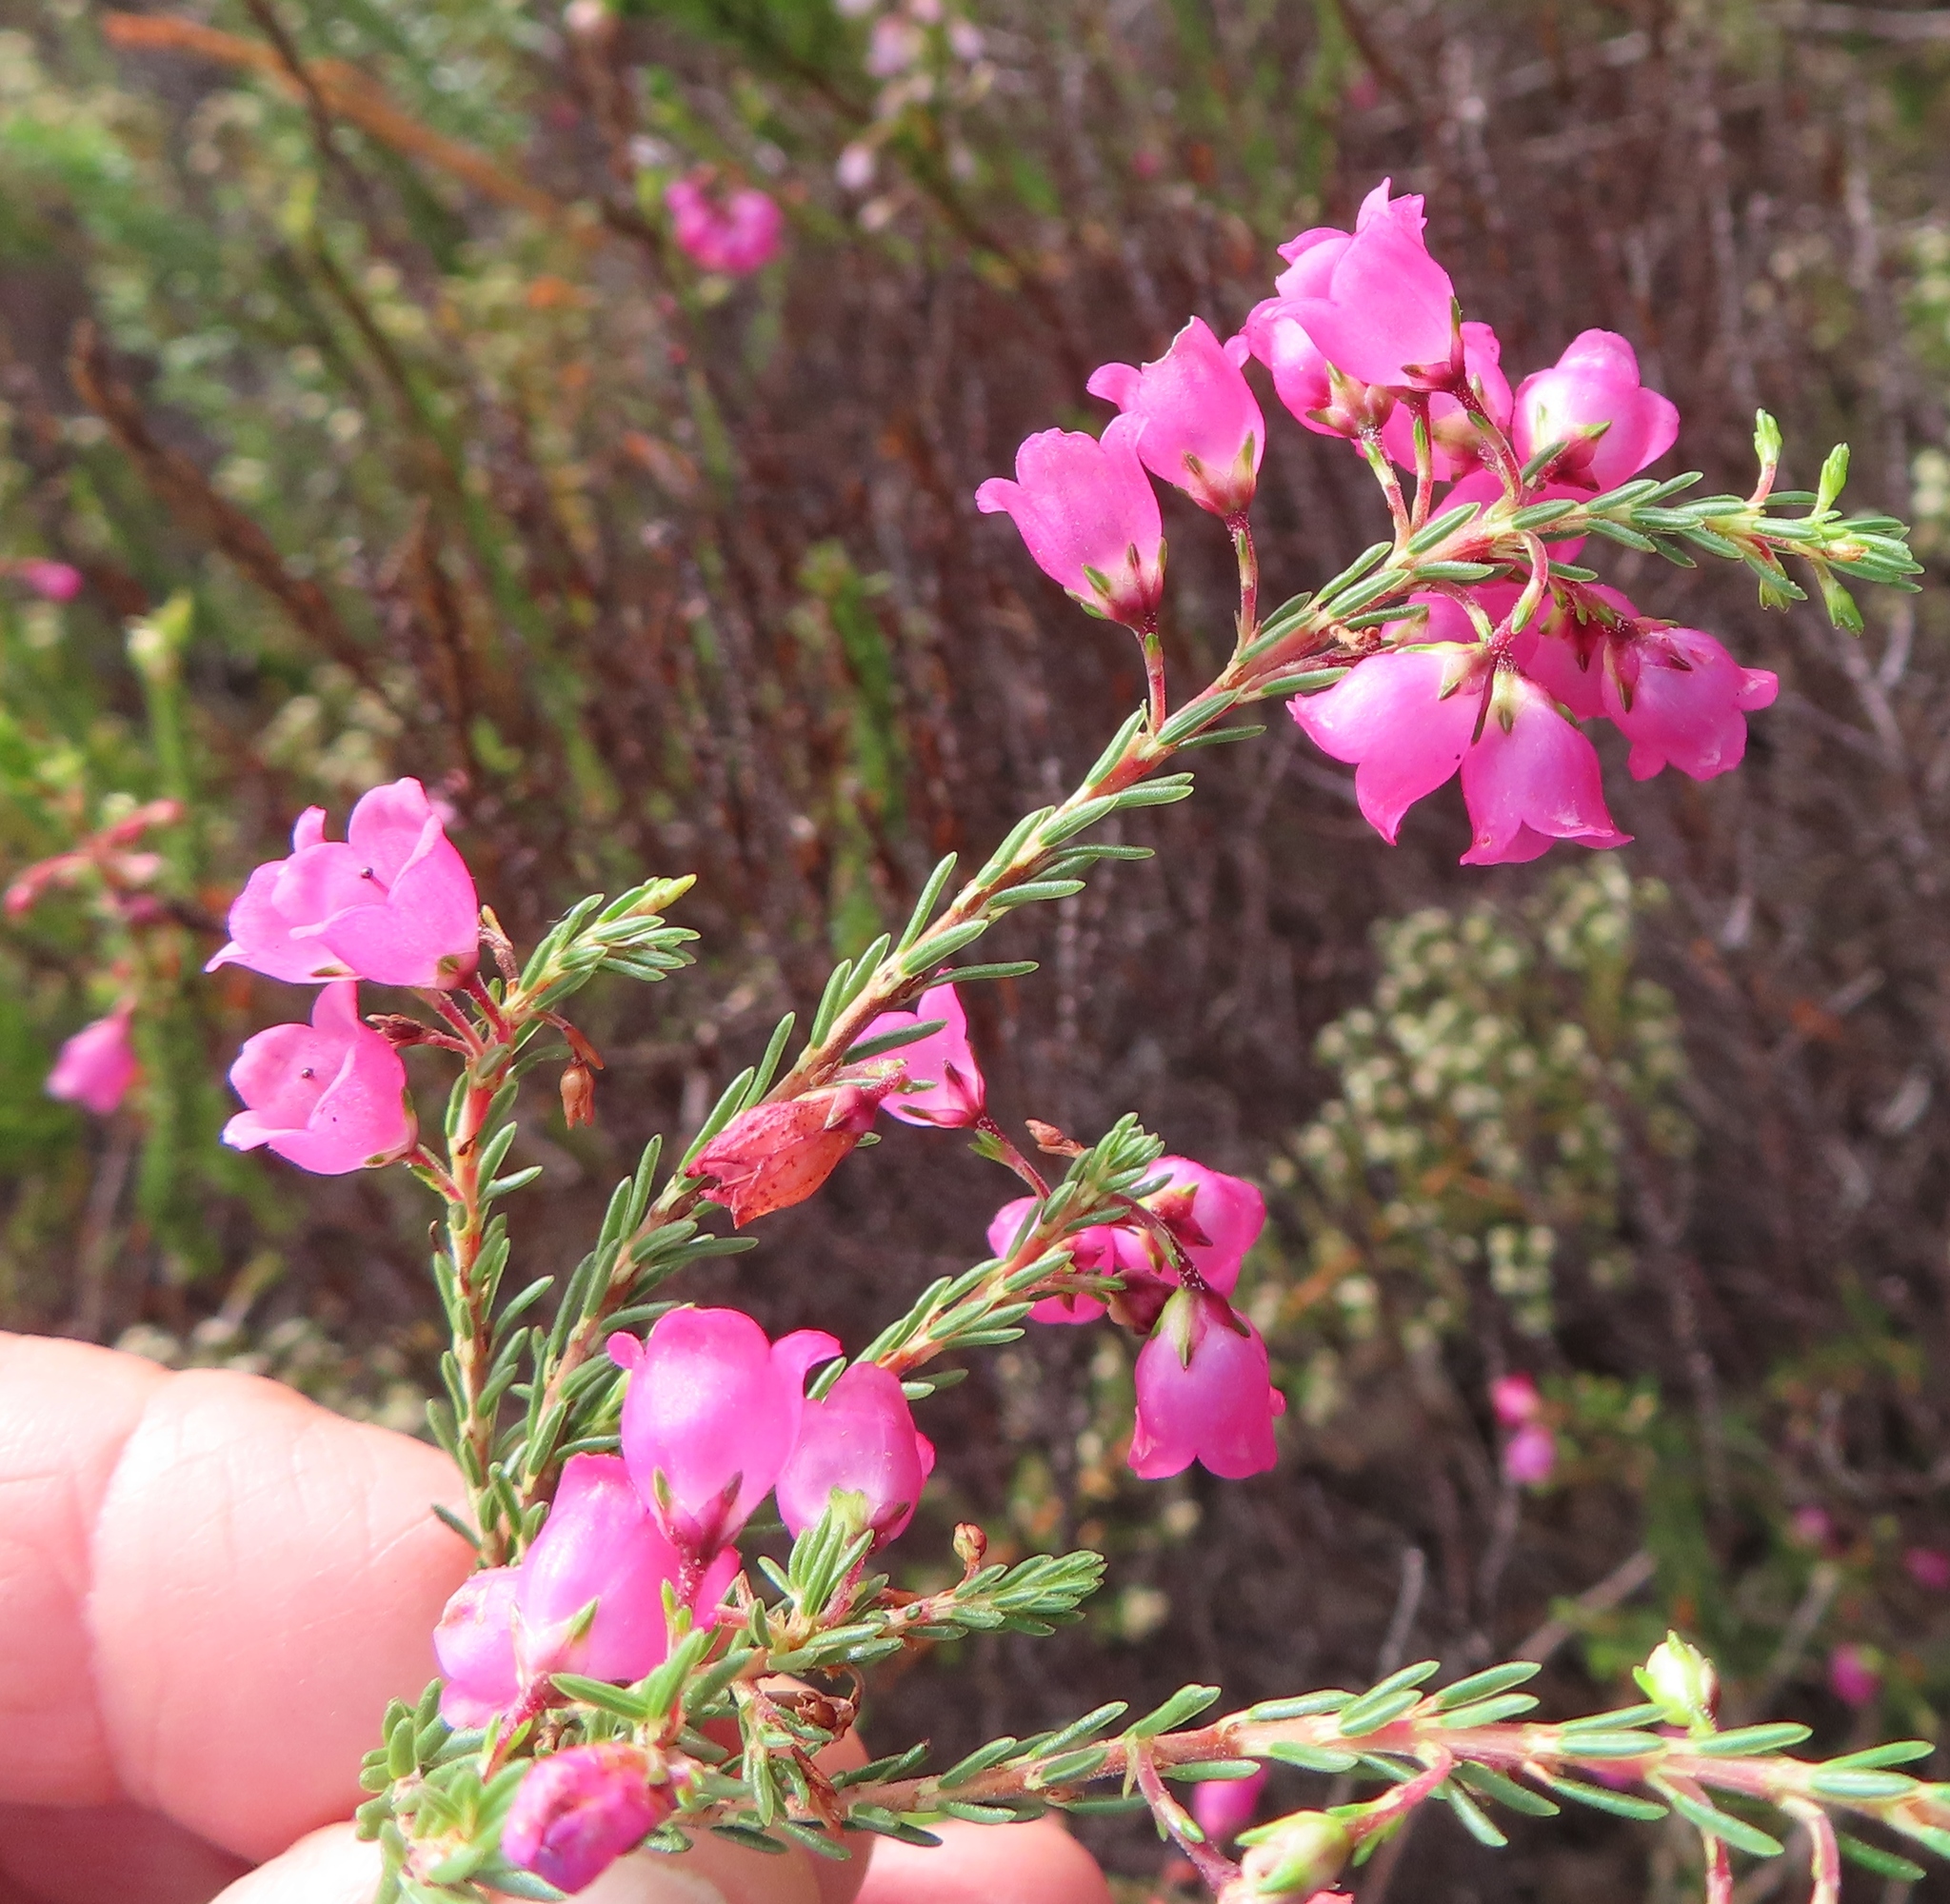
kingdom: Plantae
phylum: Tracheophyta
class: Magnoliopsida
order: Ericales
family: Ericaceae
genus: Erica
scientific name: Erica axilliflora
